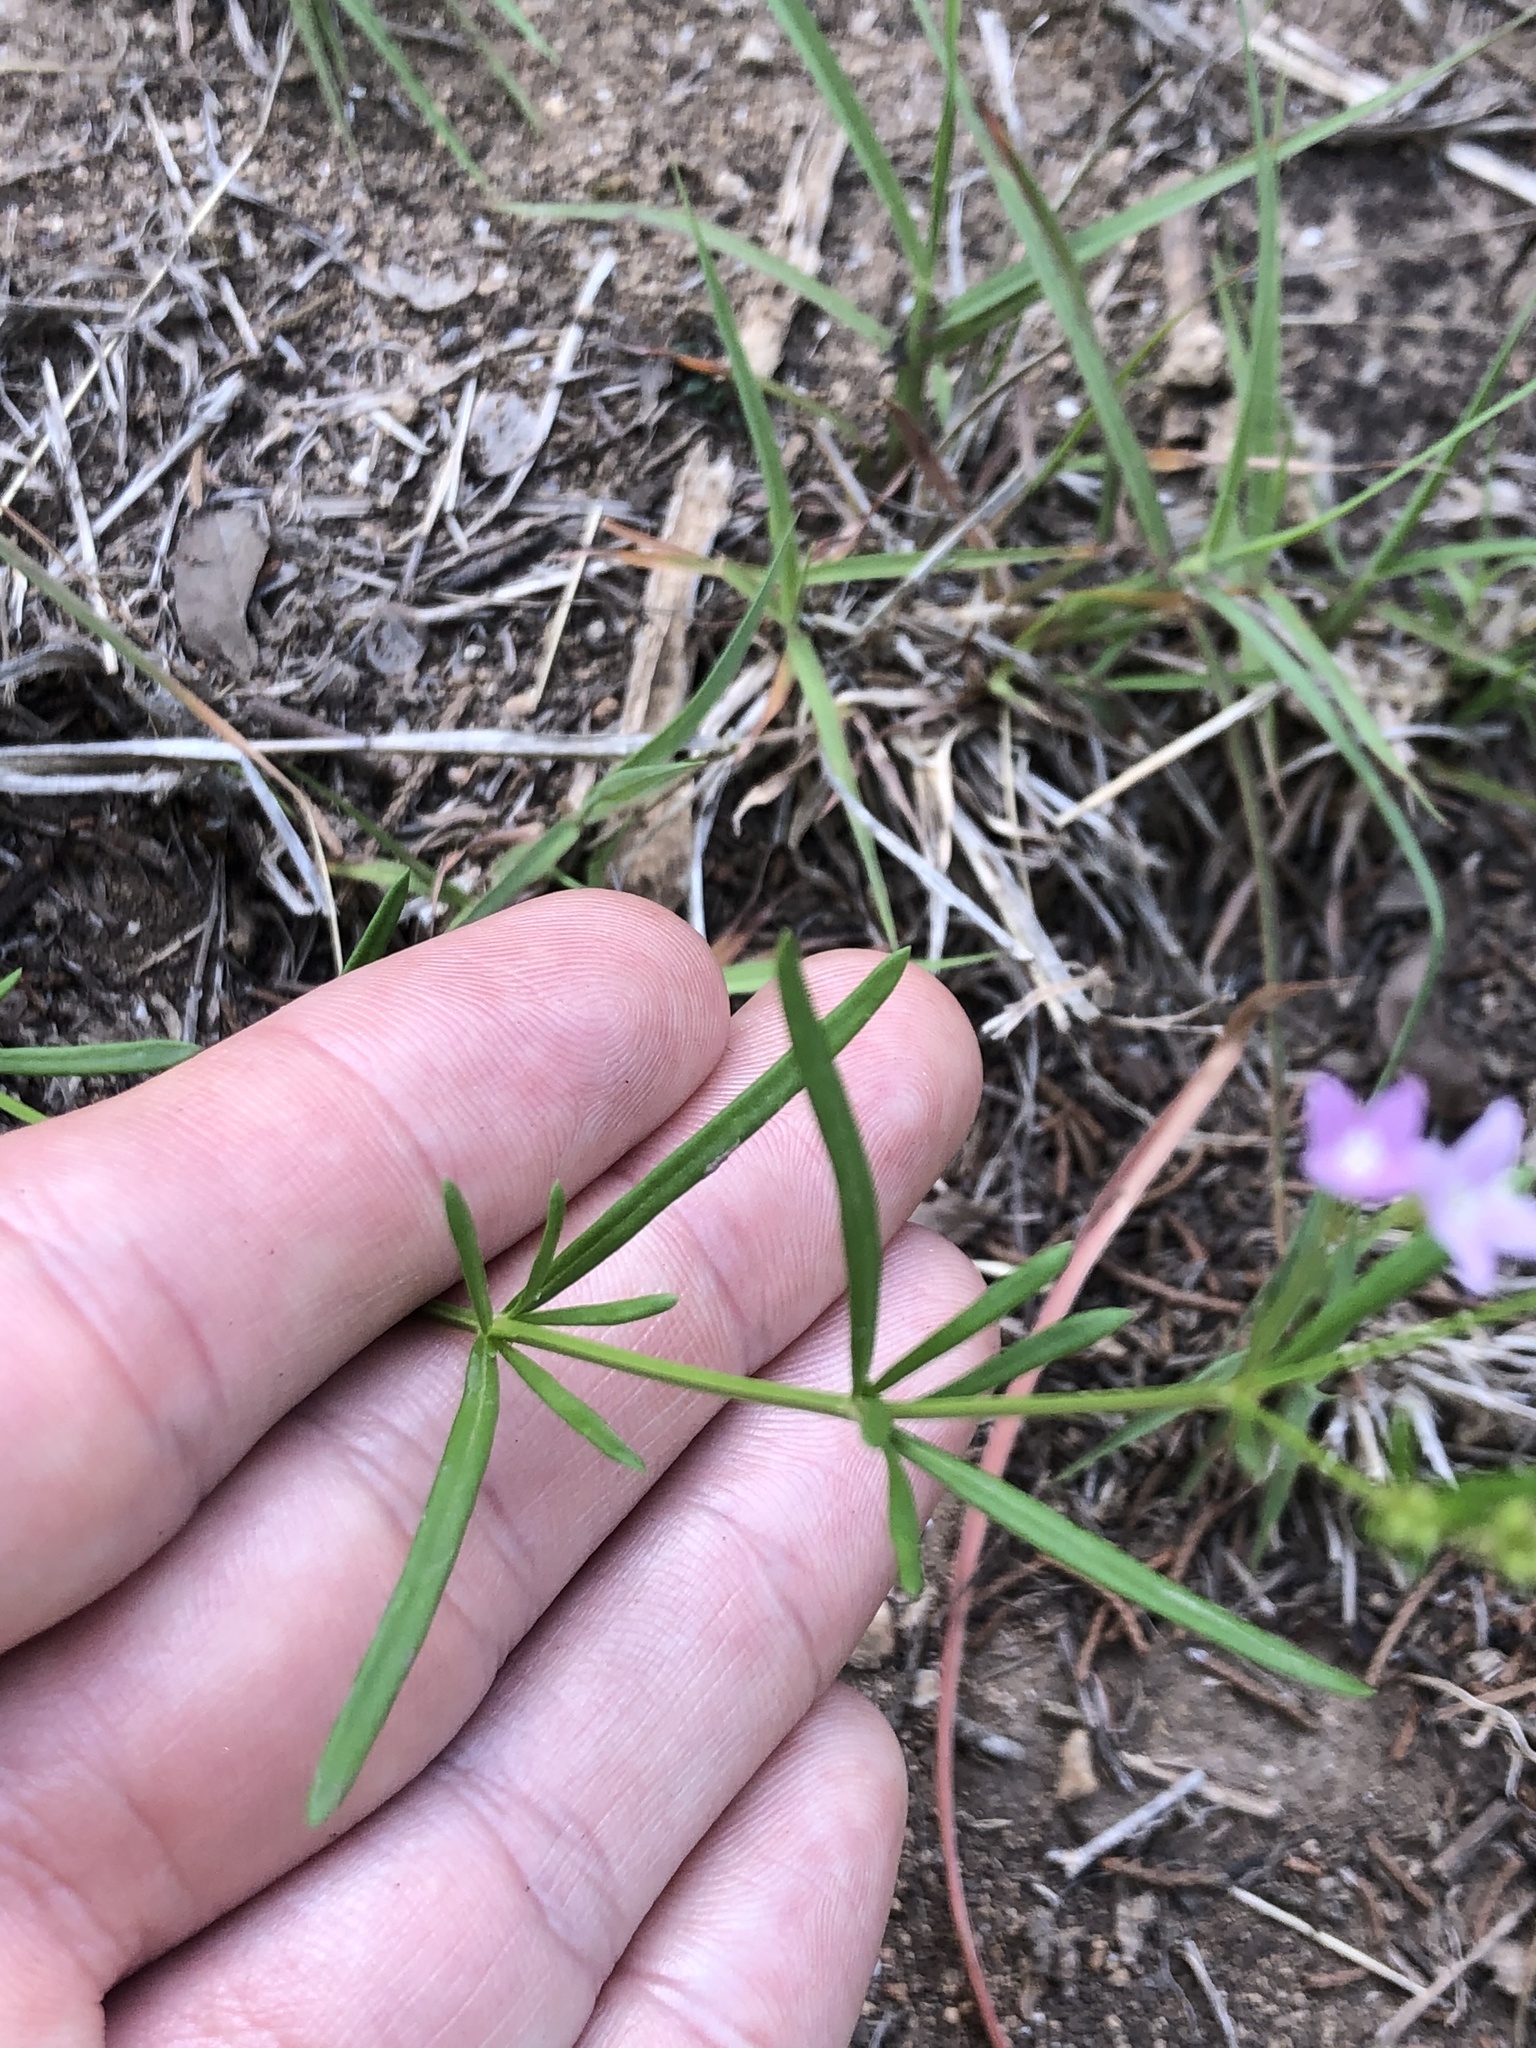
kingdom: Plantae
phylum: Tracheophyta
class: Magnoliopsida
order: Gentianales
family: Rubiaceae
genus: Stenaria
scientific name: Stenaria nigricans
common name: Diamondflowers
